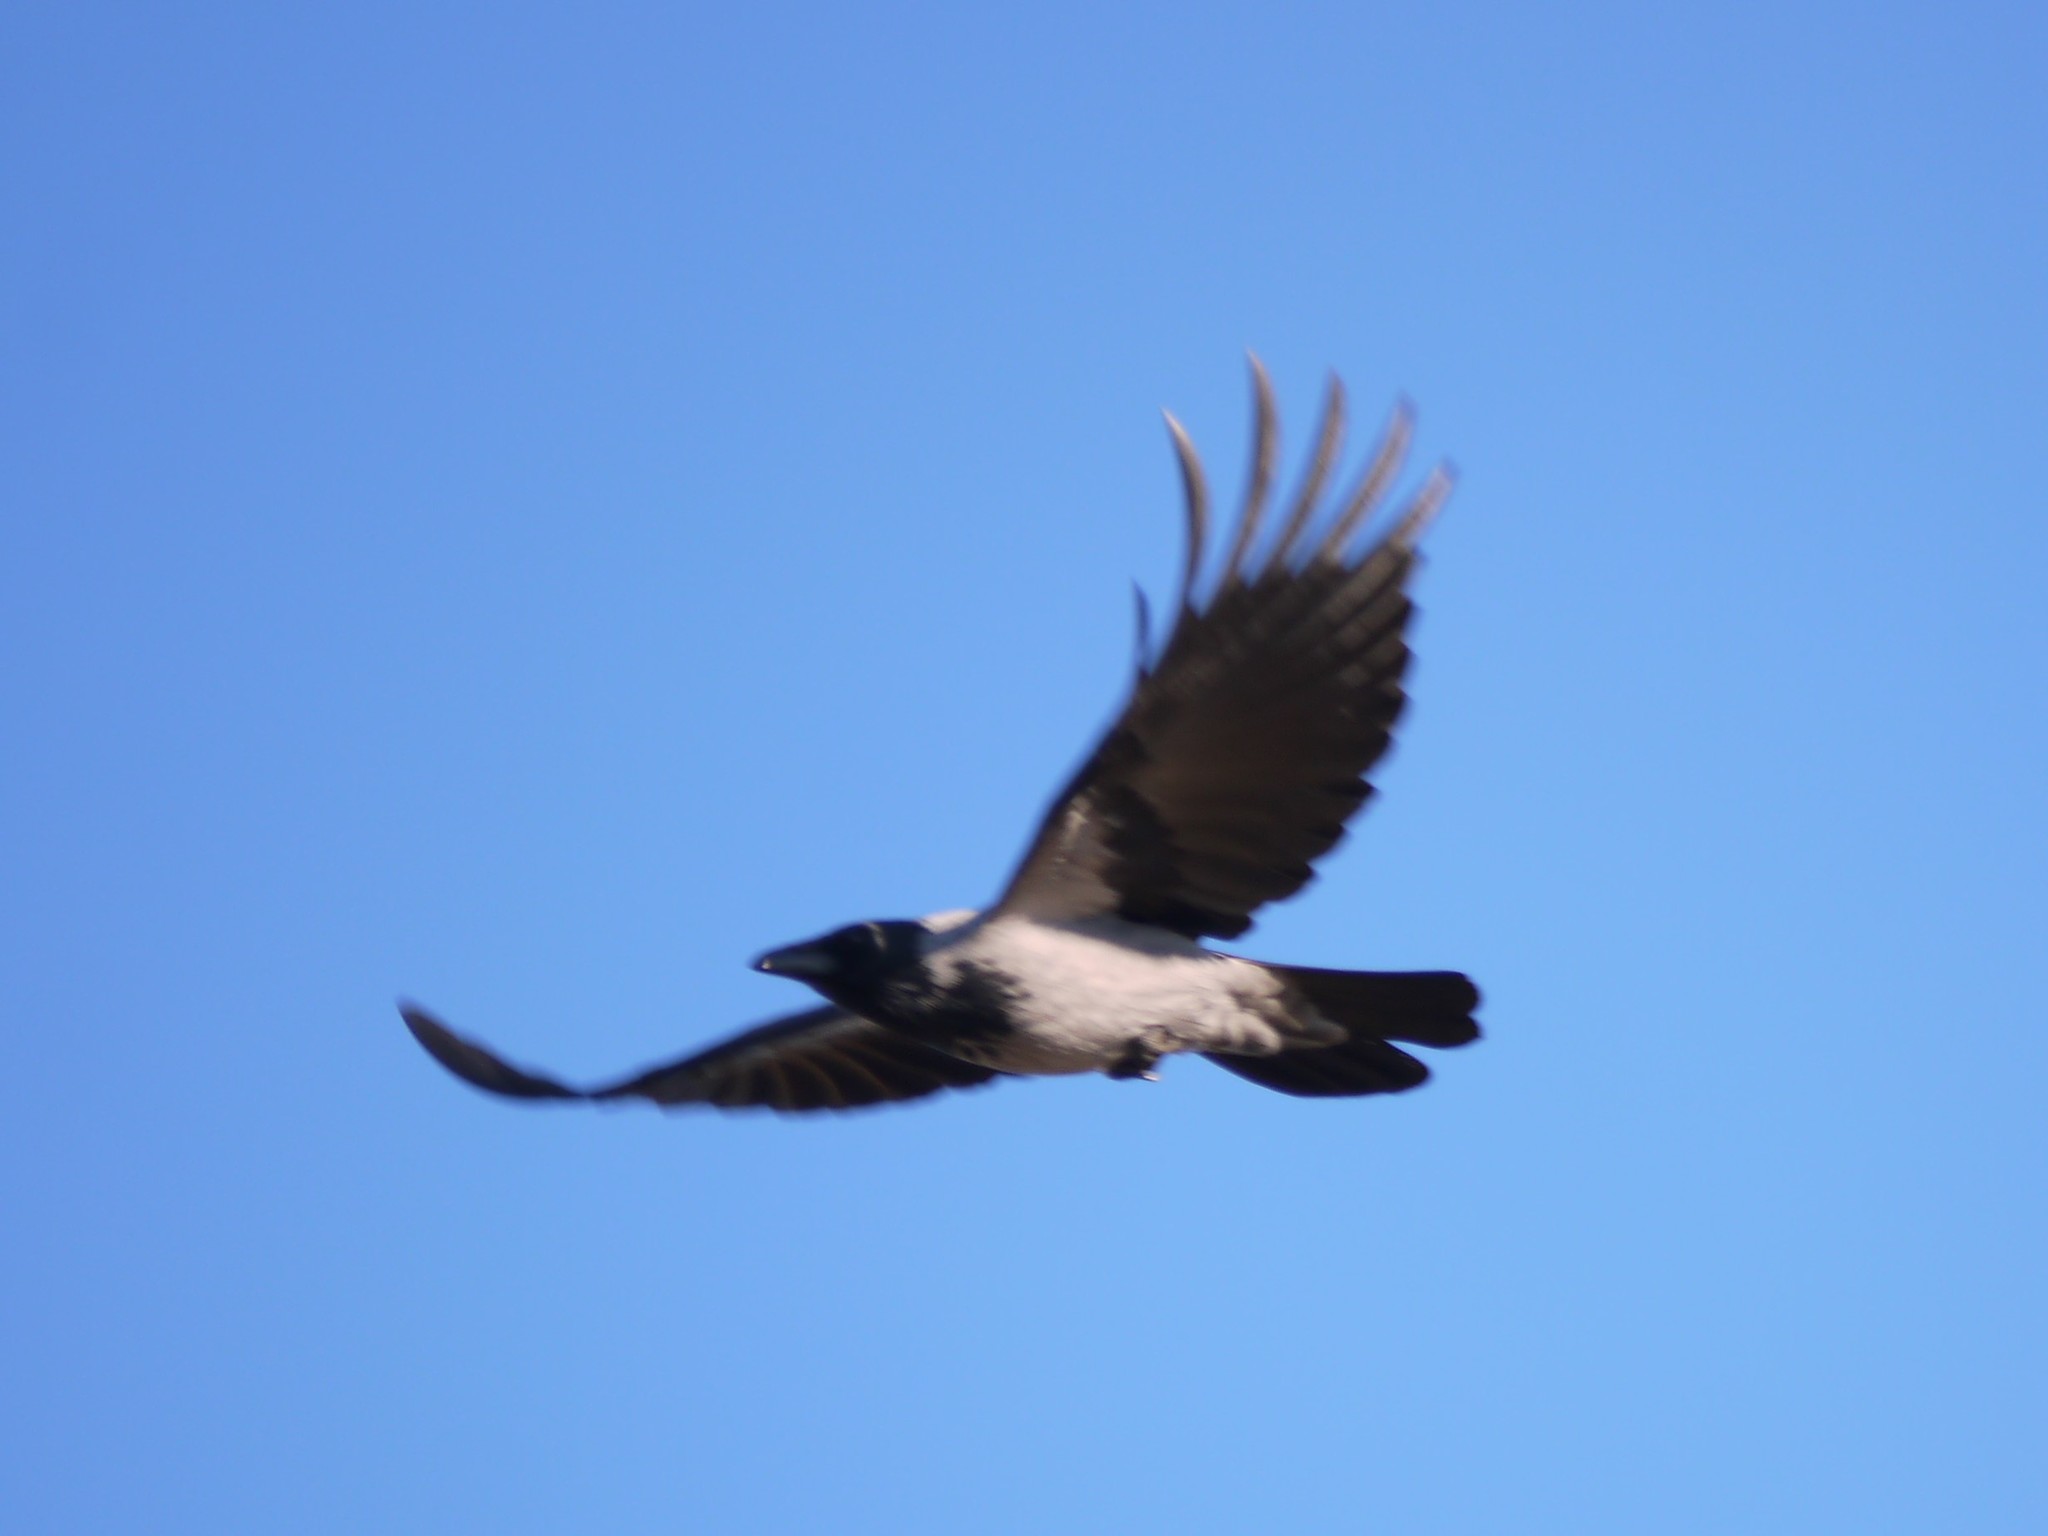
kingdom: Animalia
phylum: Chordata
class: Aves
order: Passeriformes
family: Corvidae
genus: Corvus
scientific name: Corvus cornix
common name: Hooded crow
